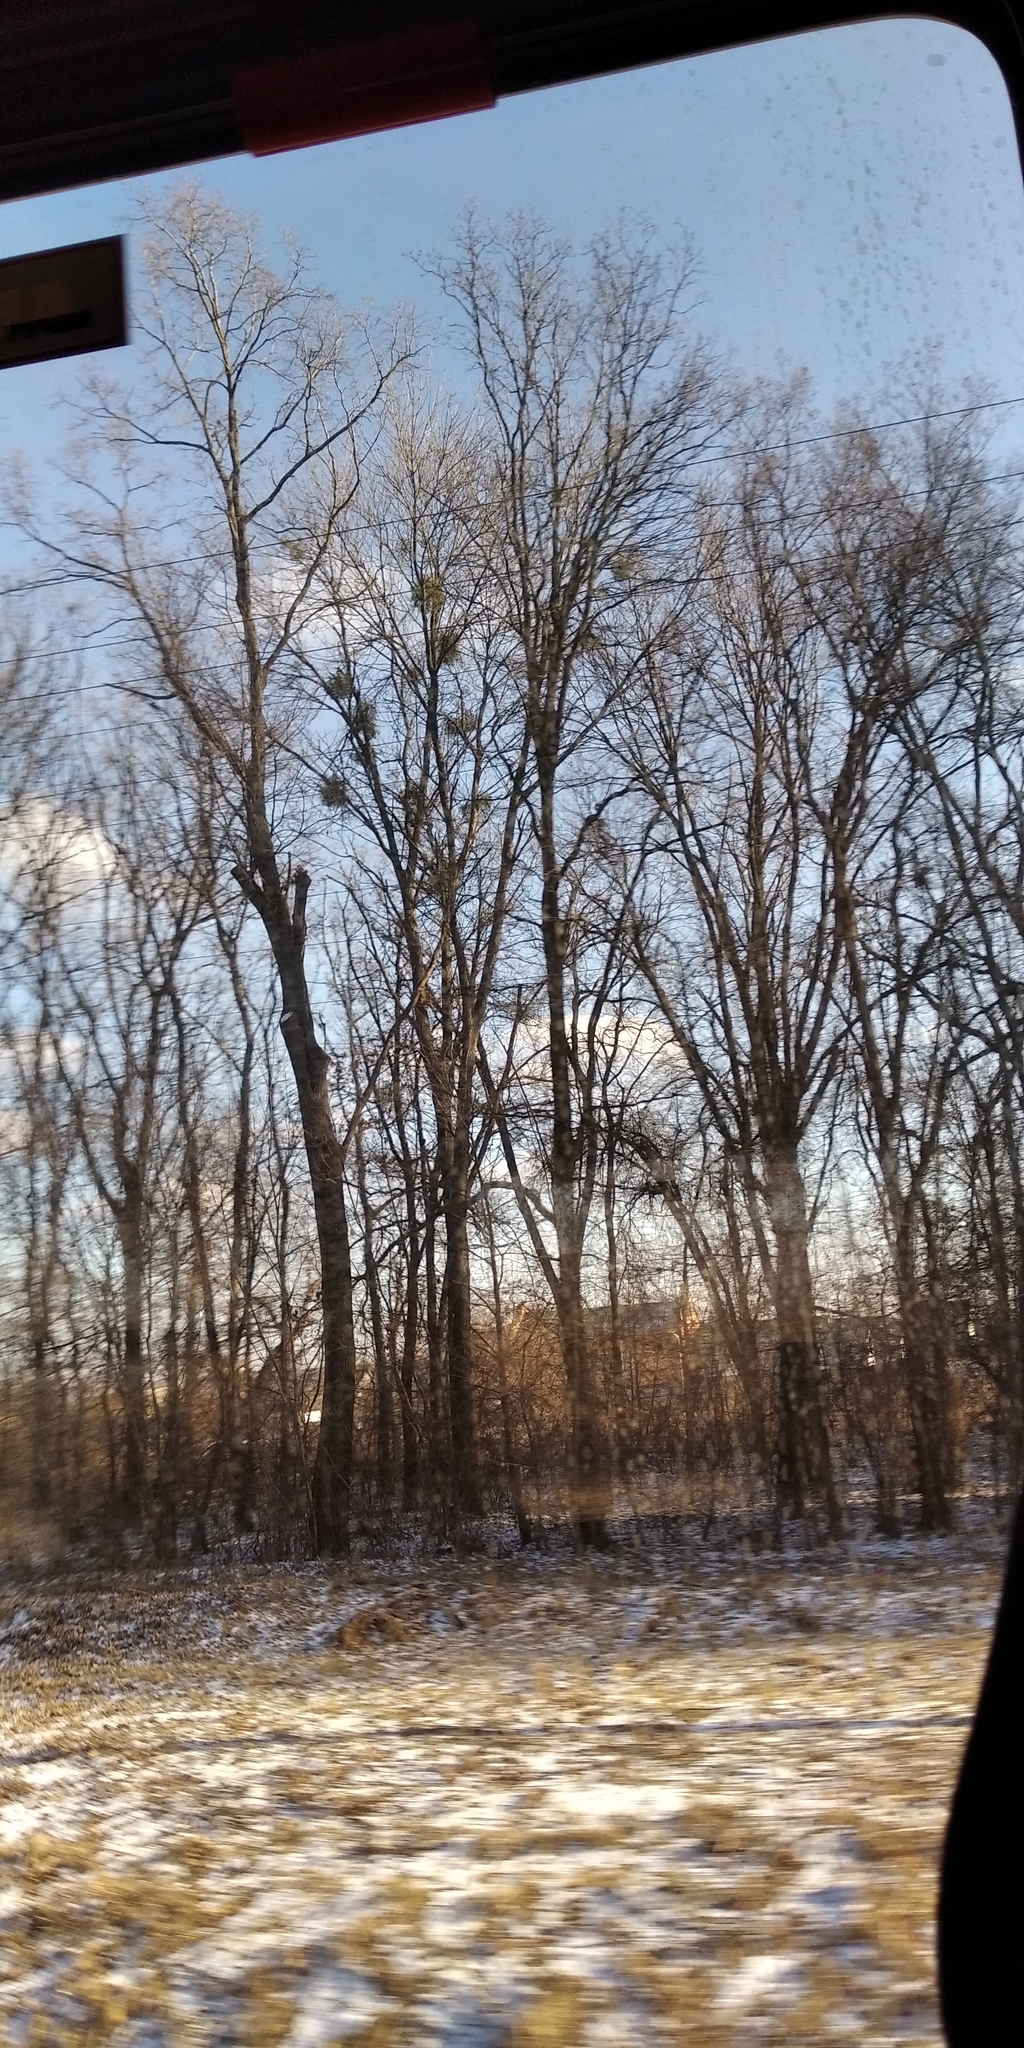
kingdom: Plantae
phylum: Tracheophyta
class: Magnoliopsida
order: Santalales
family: Viscaceae
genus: Viscum
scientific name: Viscum album
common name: Mistletoe
